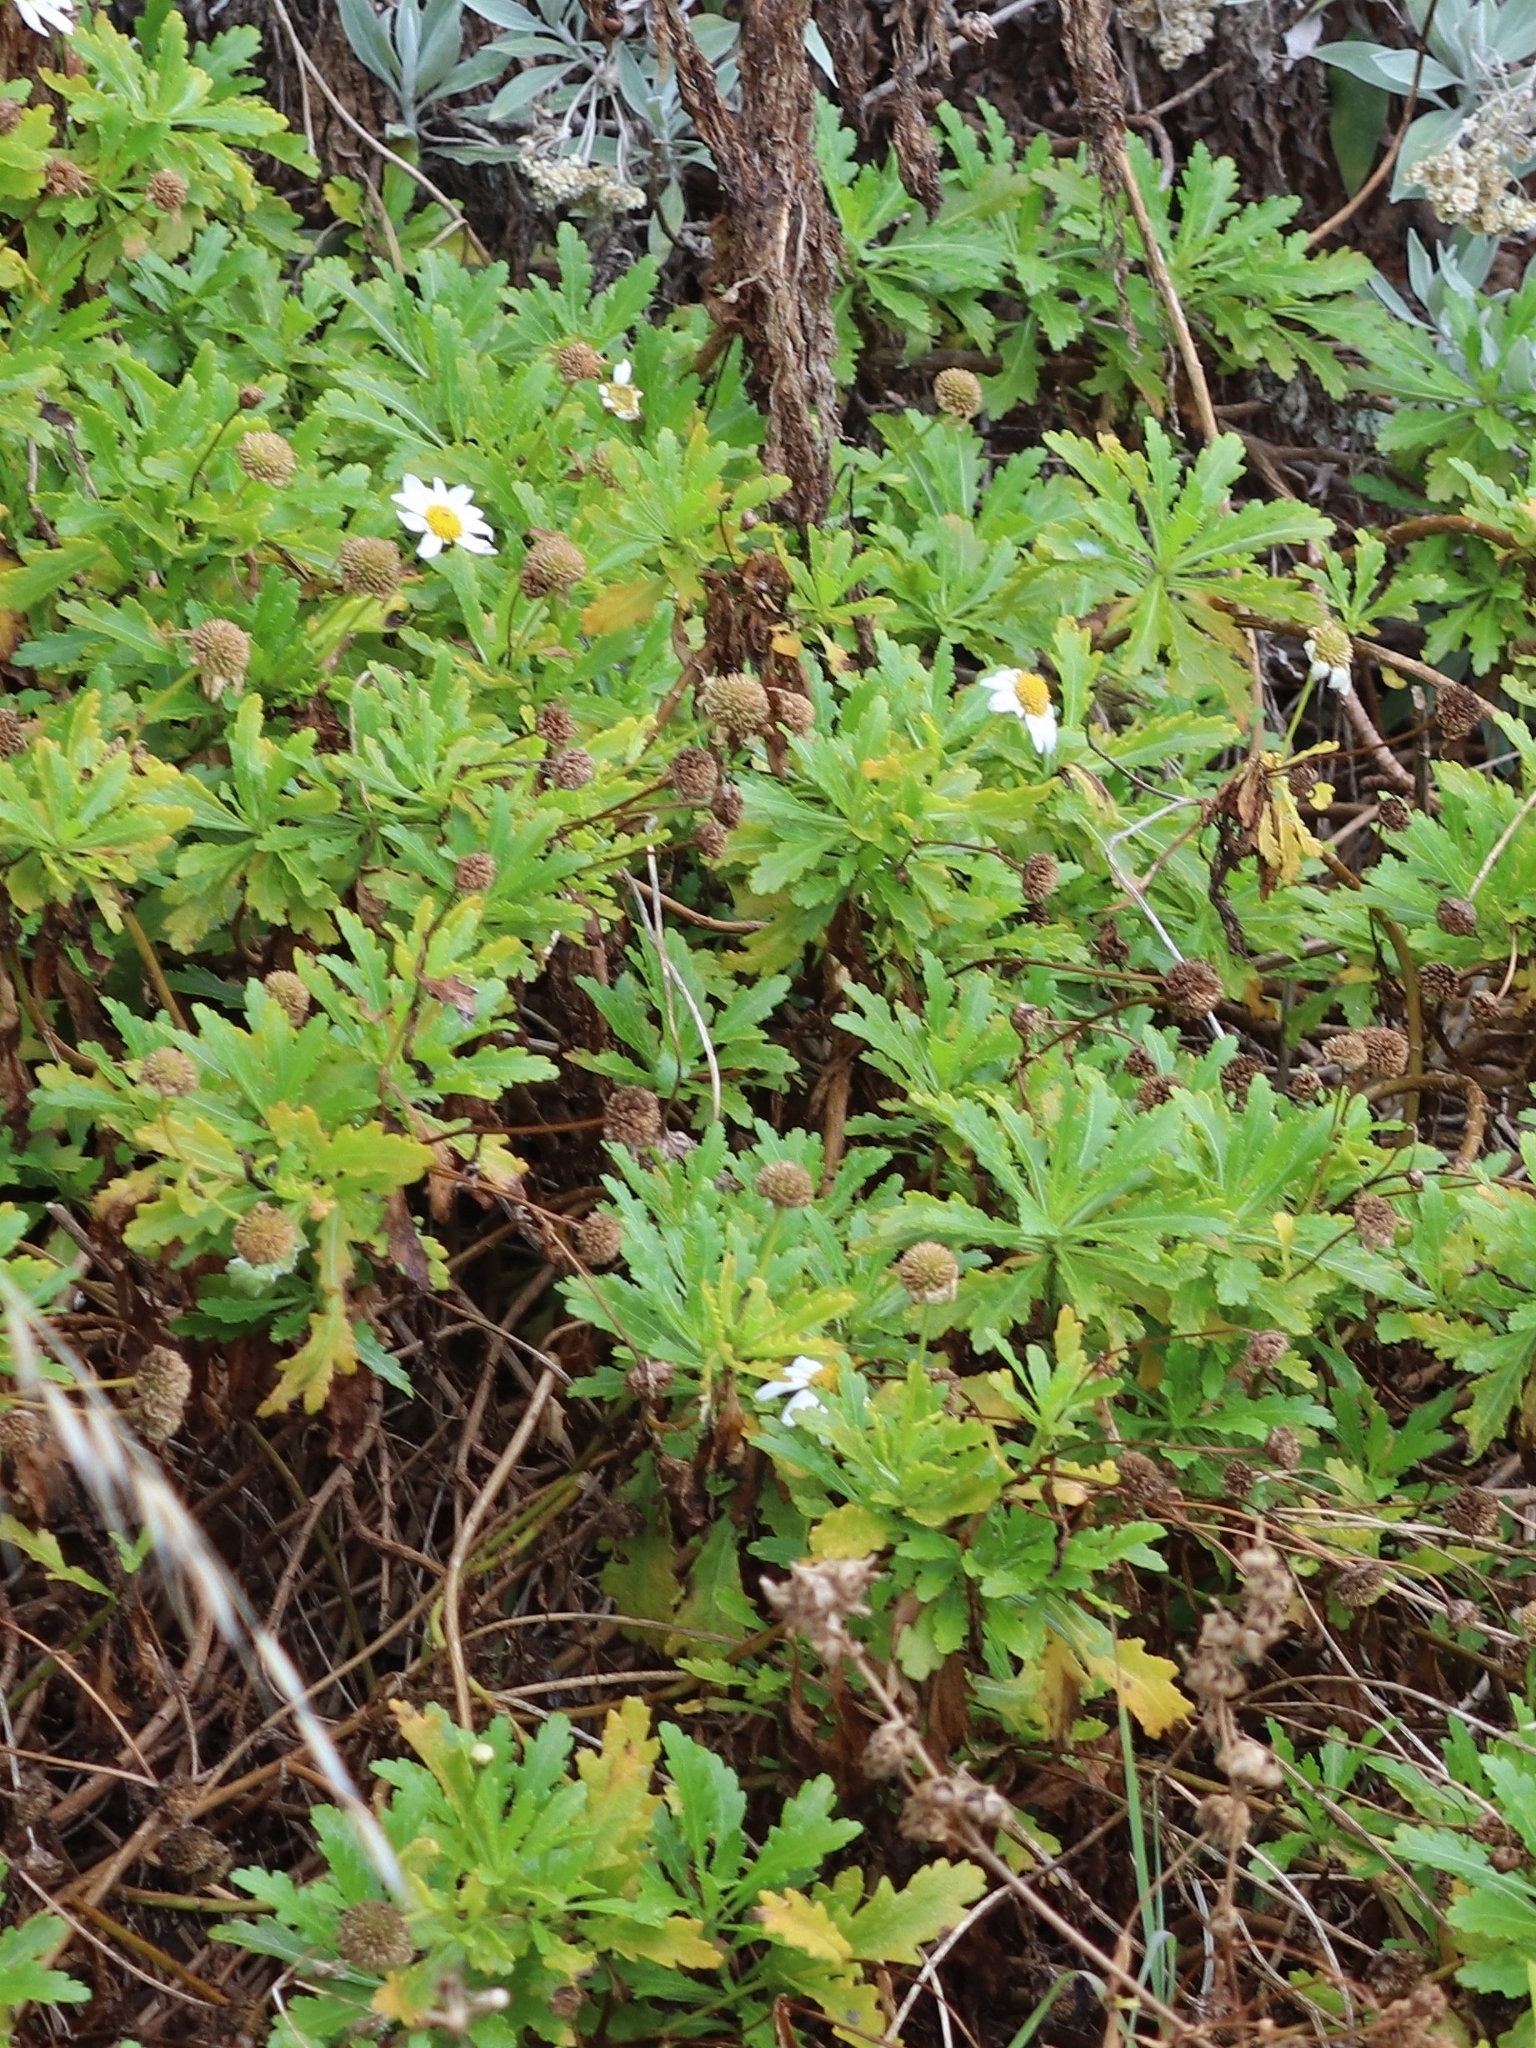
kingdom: Plantae
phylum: Tracheophyta
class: Magnoliopsida
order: Asterales
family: Asteraceae
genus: Argyranthemum
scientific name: Argyranthemum pinnatifidum
